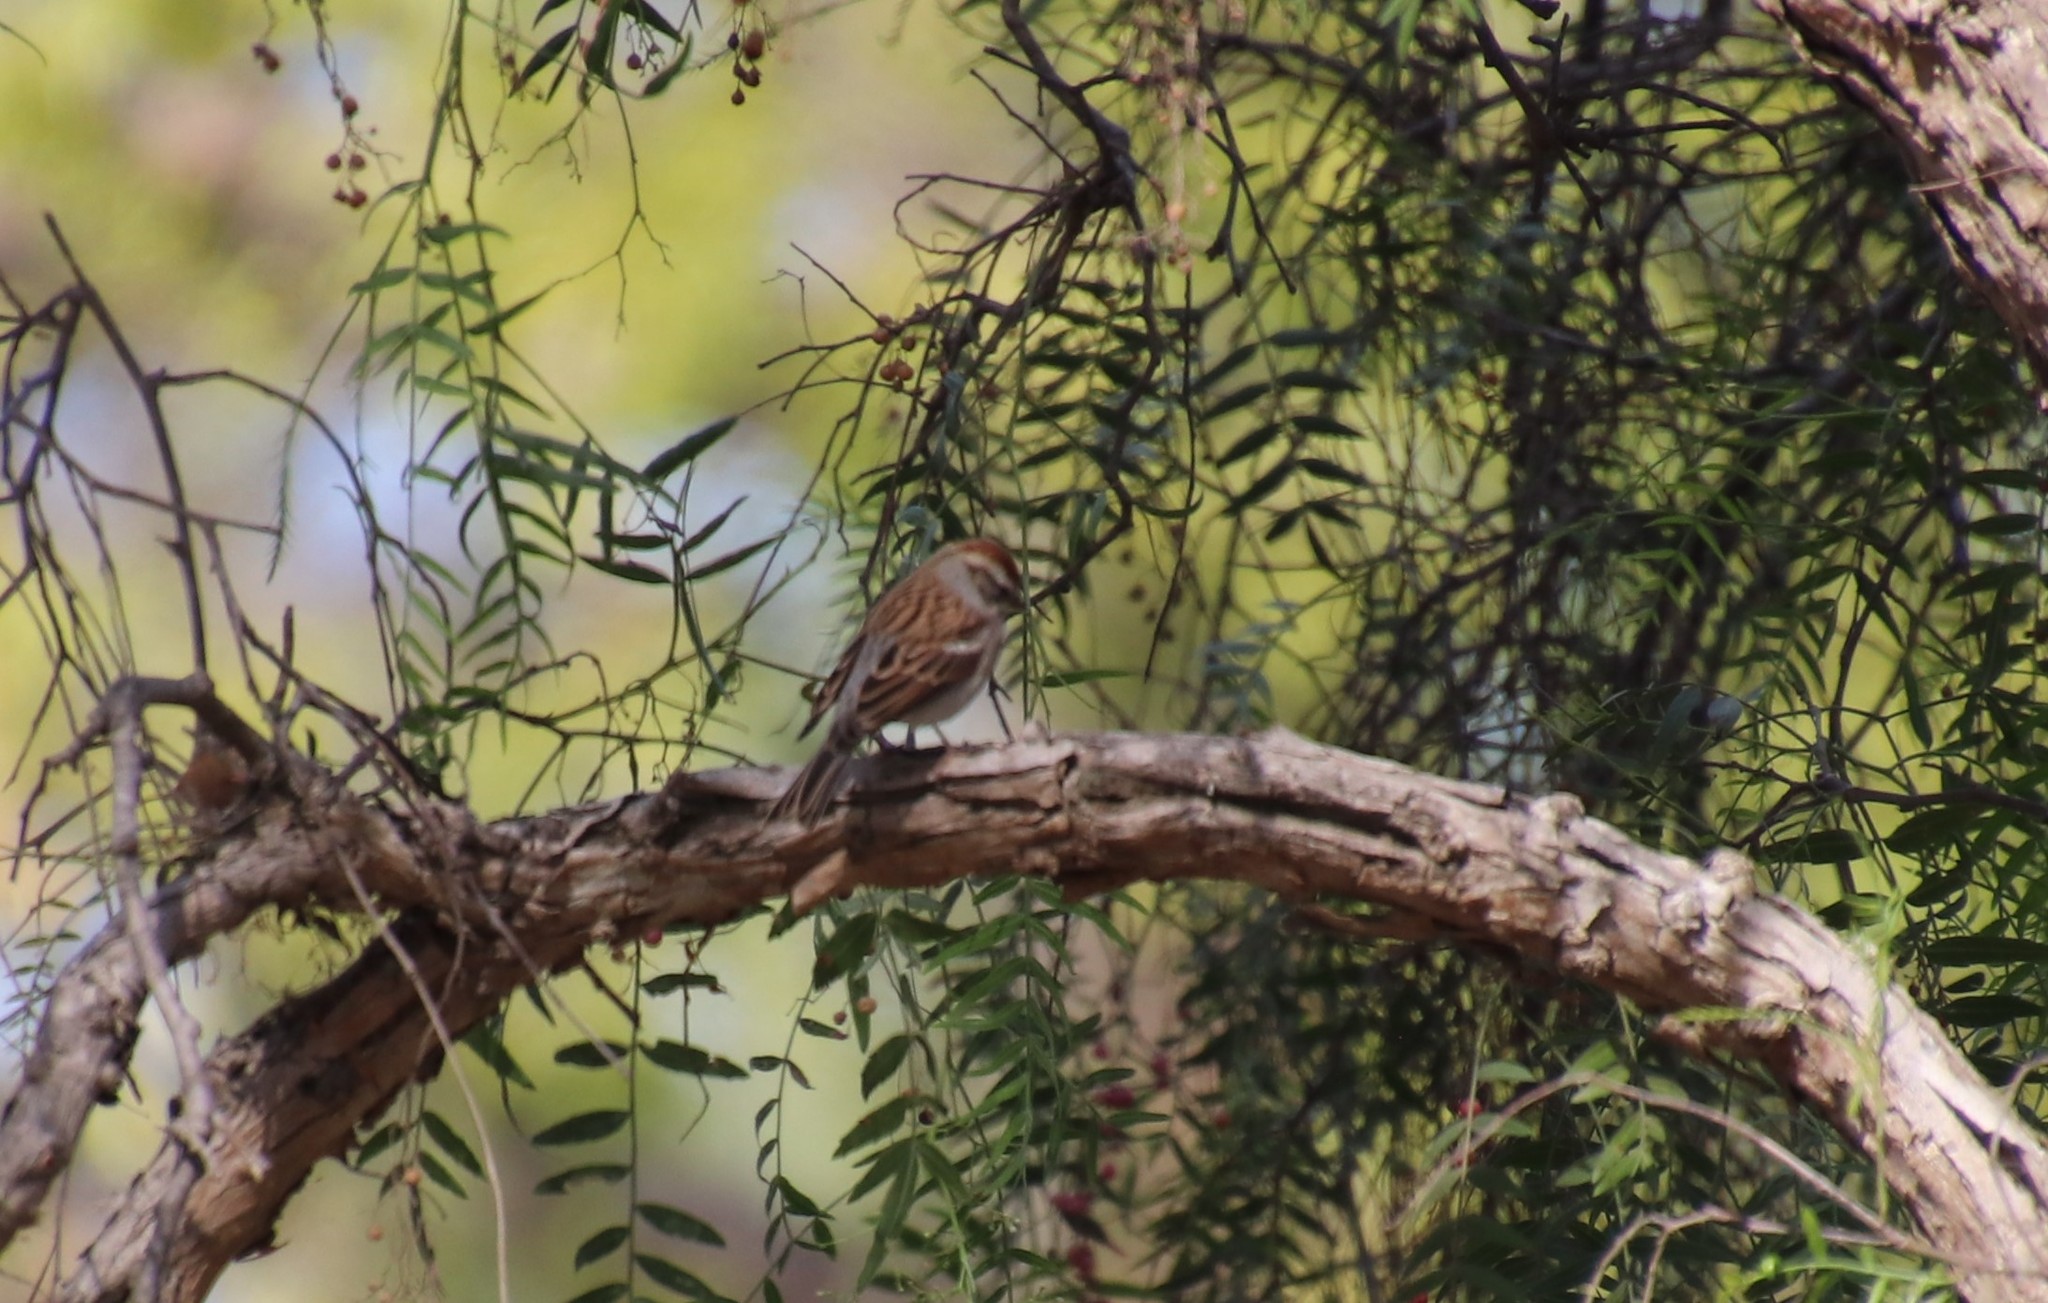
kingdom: Animalia
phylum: Chordata
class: Aves
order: Passeriformes
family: Passerellidae
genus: Spizella
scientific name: Spizella passerina
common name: Chipping sparrow
